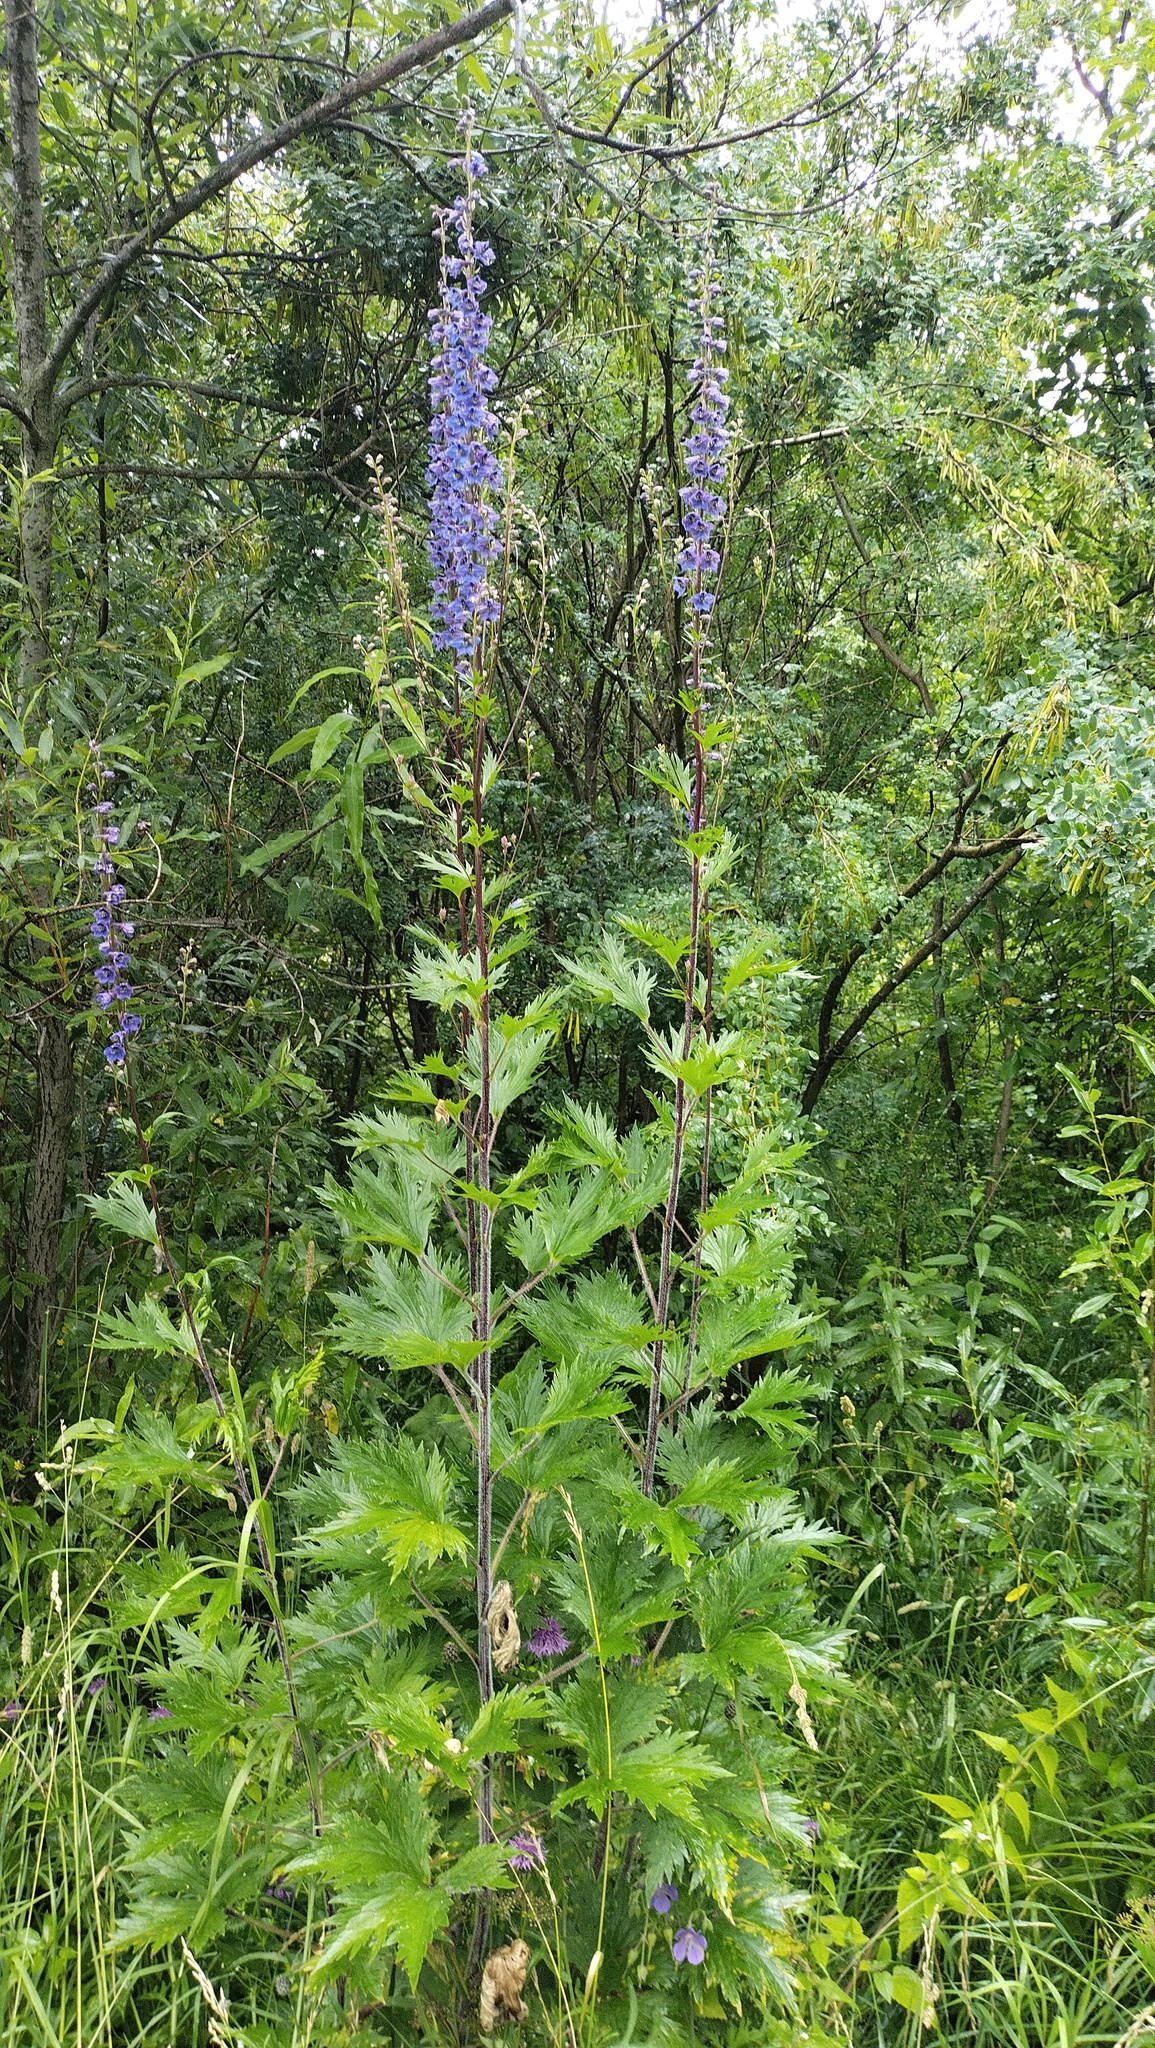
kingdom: Plantae
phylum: Tracheophyta
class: Magnoliopsida
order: Ranunculales
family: Ranunculaceae
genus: Delphinium
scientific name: Delphinium retropilosum
